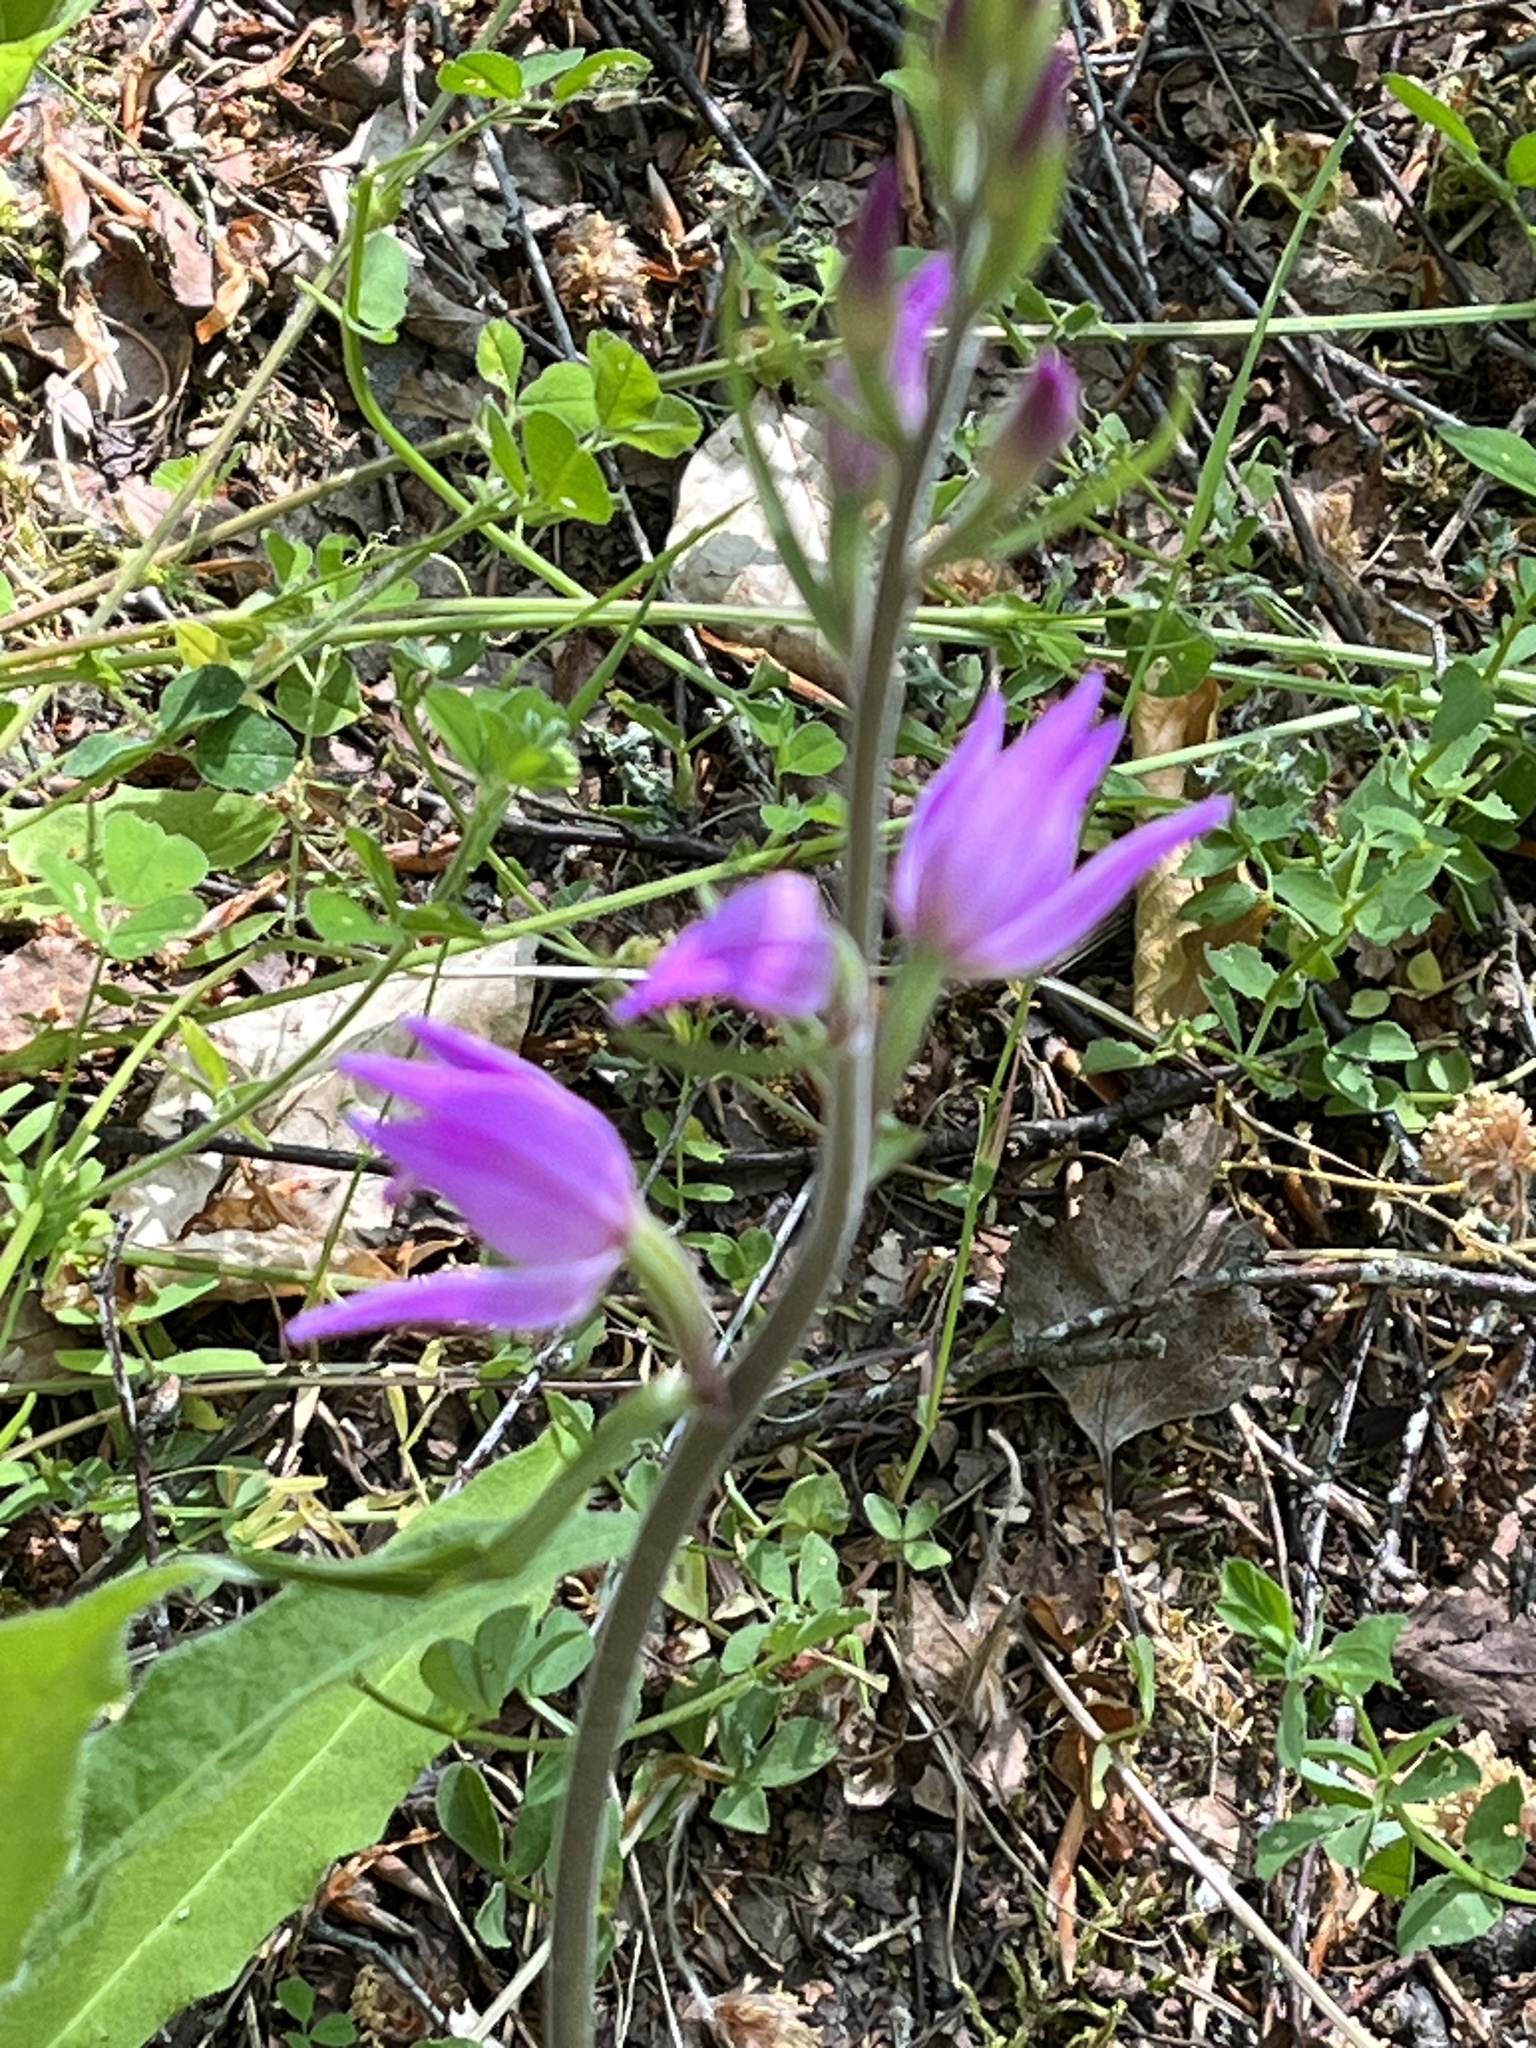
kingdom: Plantae
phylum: Tracheophyta
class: Liliopsida
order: Asparagales
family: Orchidaceae
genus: Cephalanthera
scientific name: Cephalanthera rubra
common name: Red helleborine
